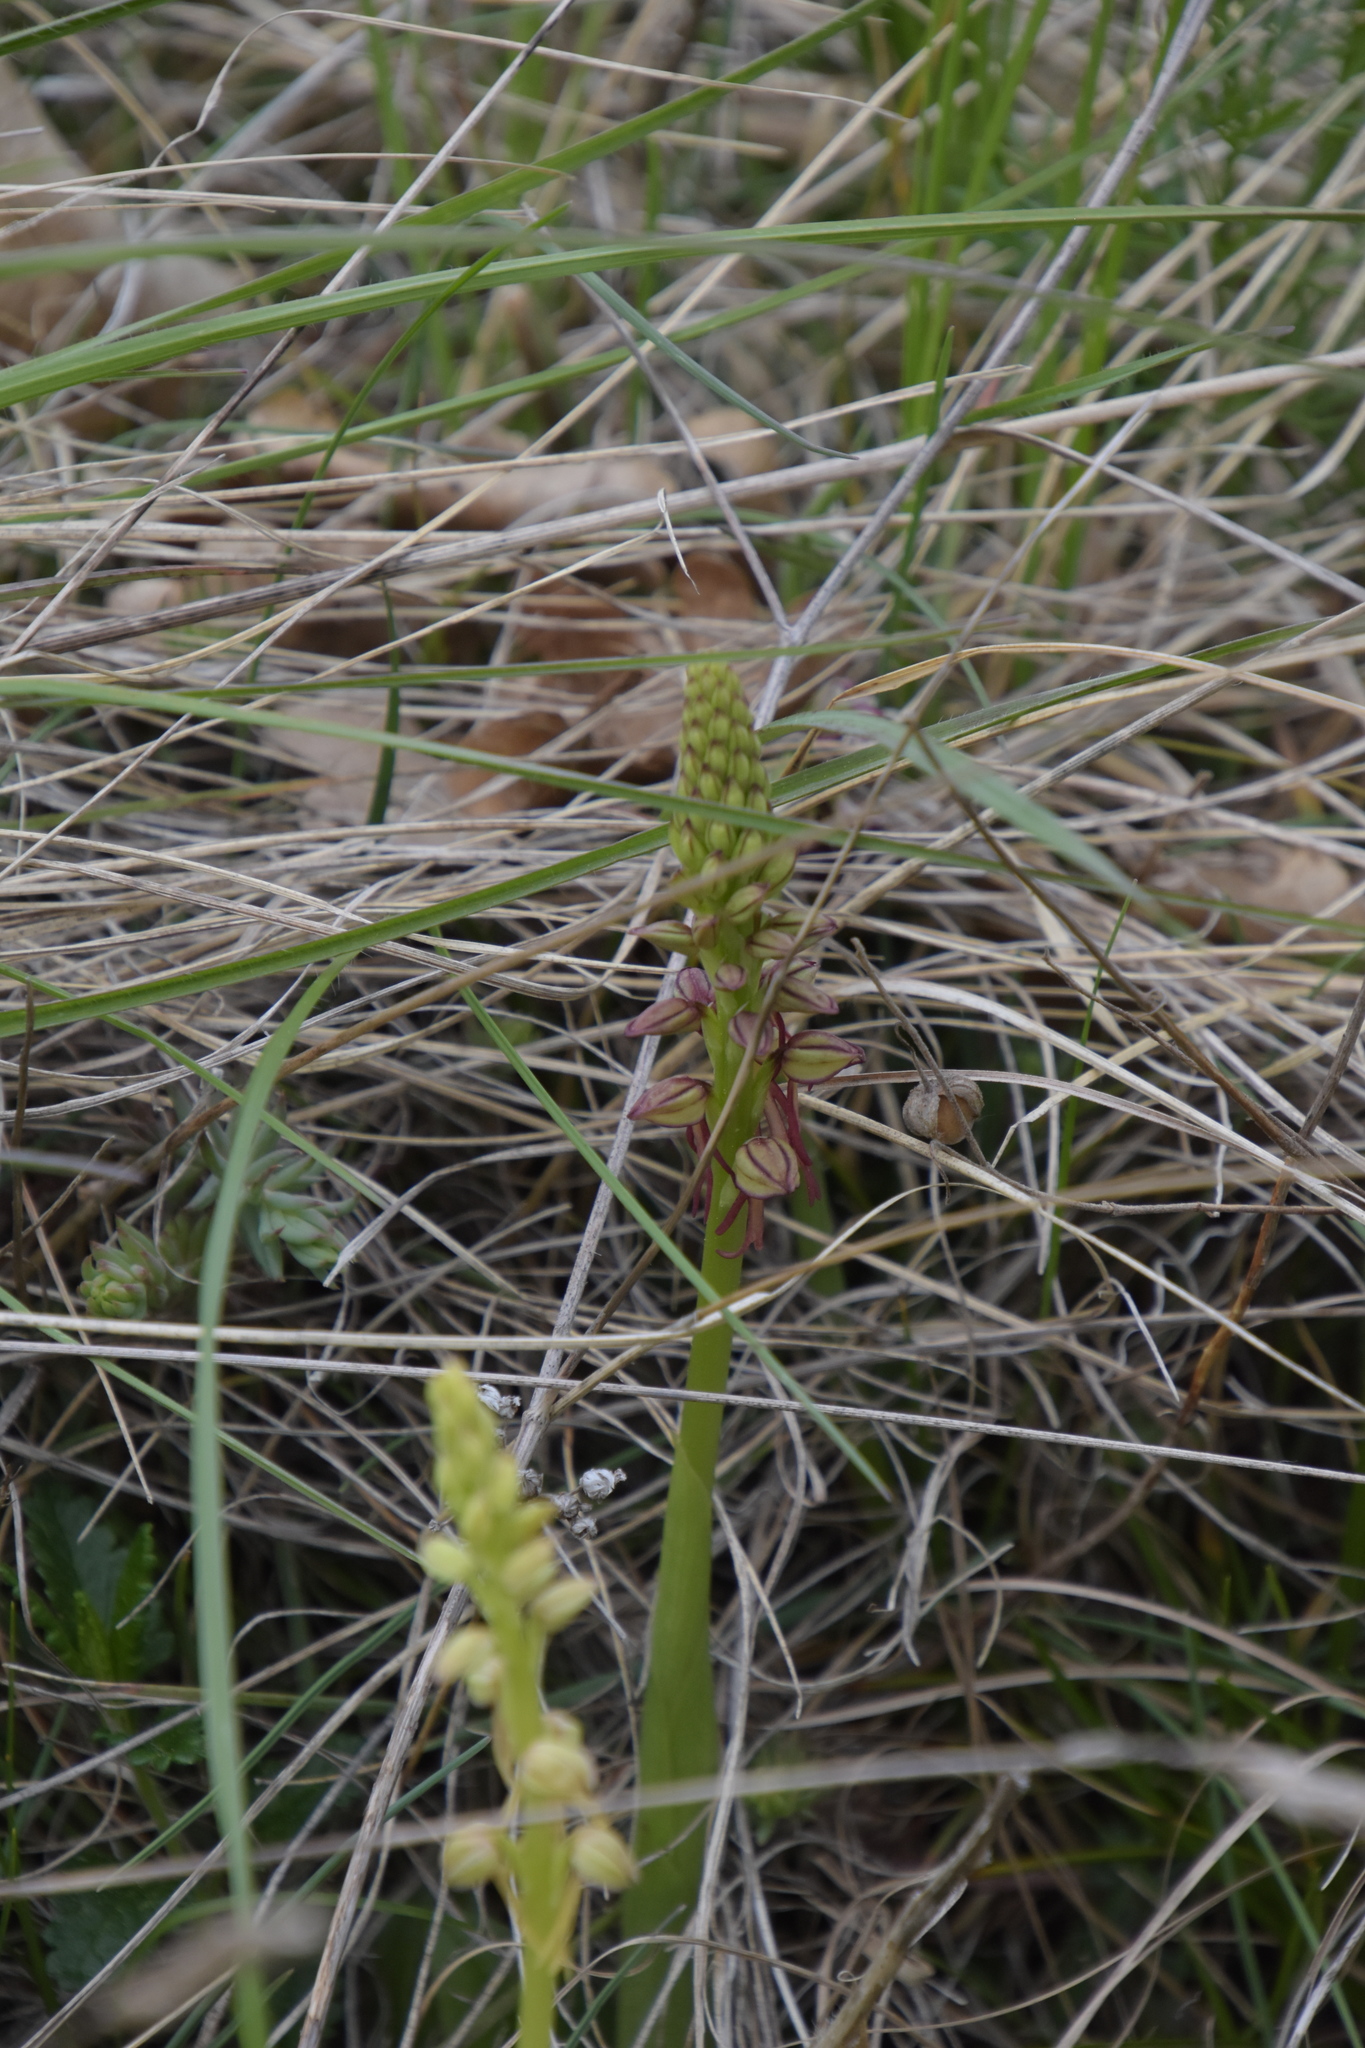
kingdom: Plantae
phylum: Tracheophyta
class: Liliopsida
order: Asparagales
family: Orchidaceae
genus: Orchis
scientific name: Orchis anthropophora
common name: Man orchid
